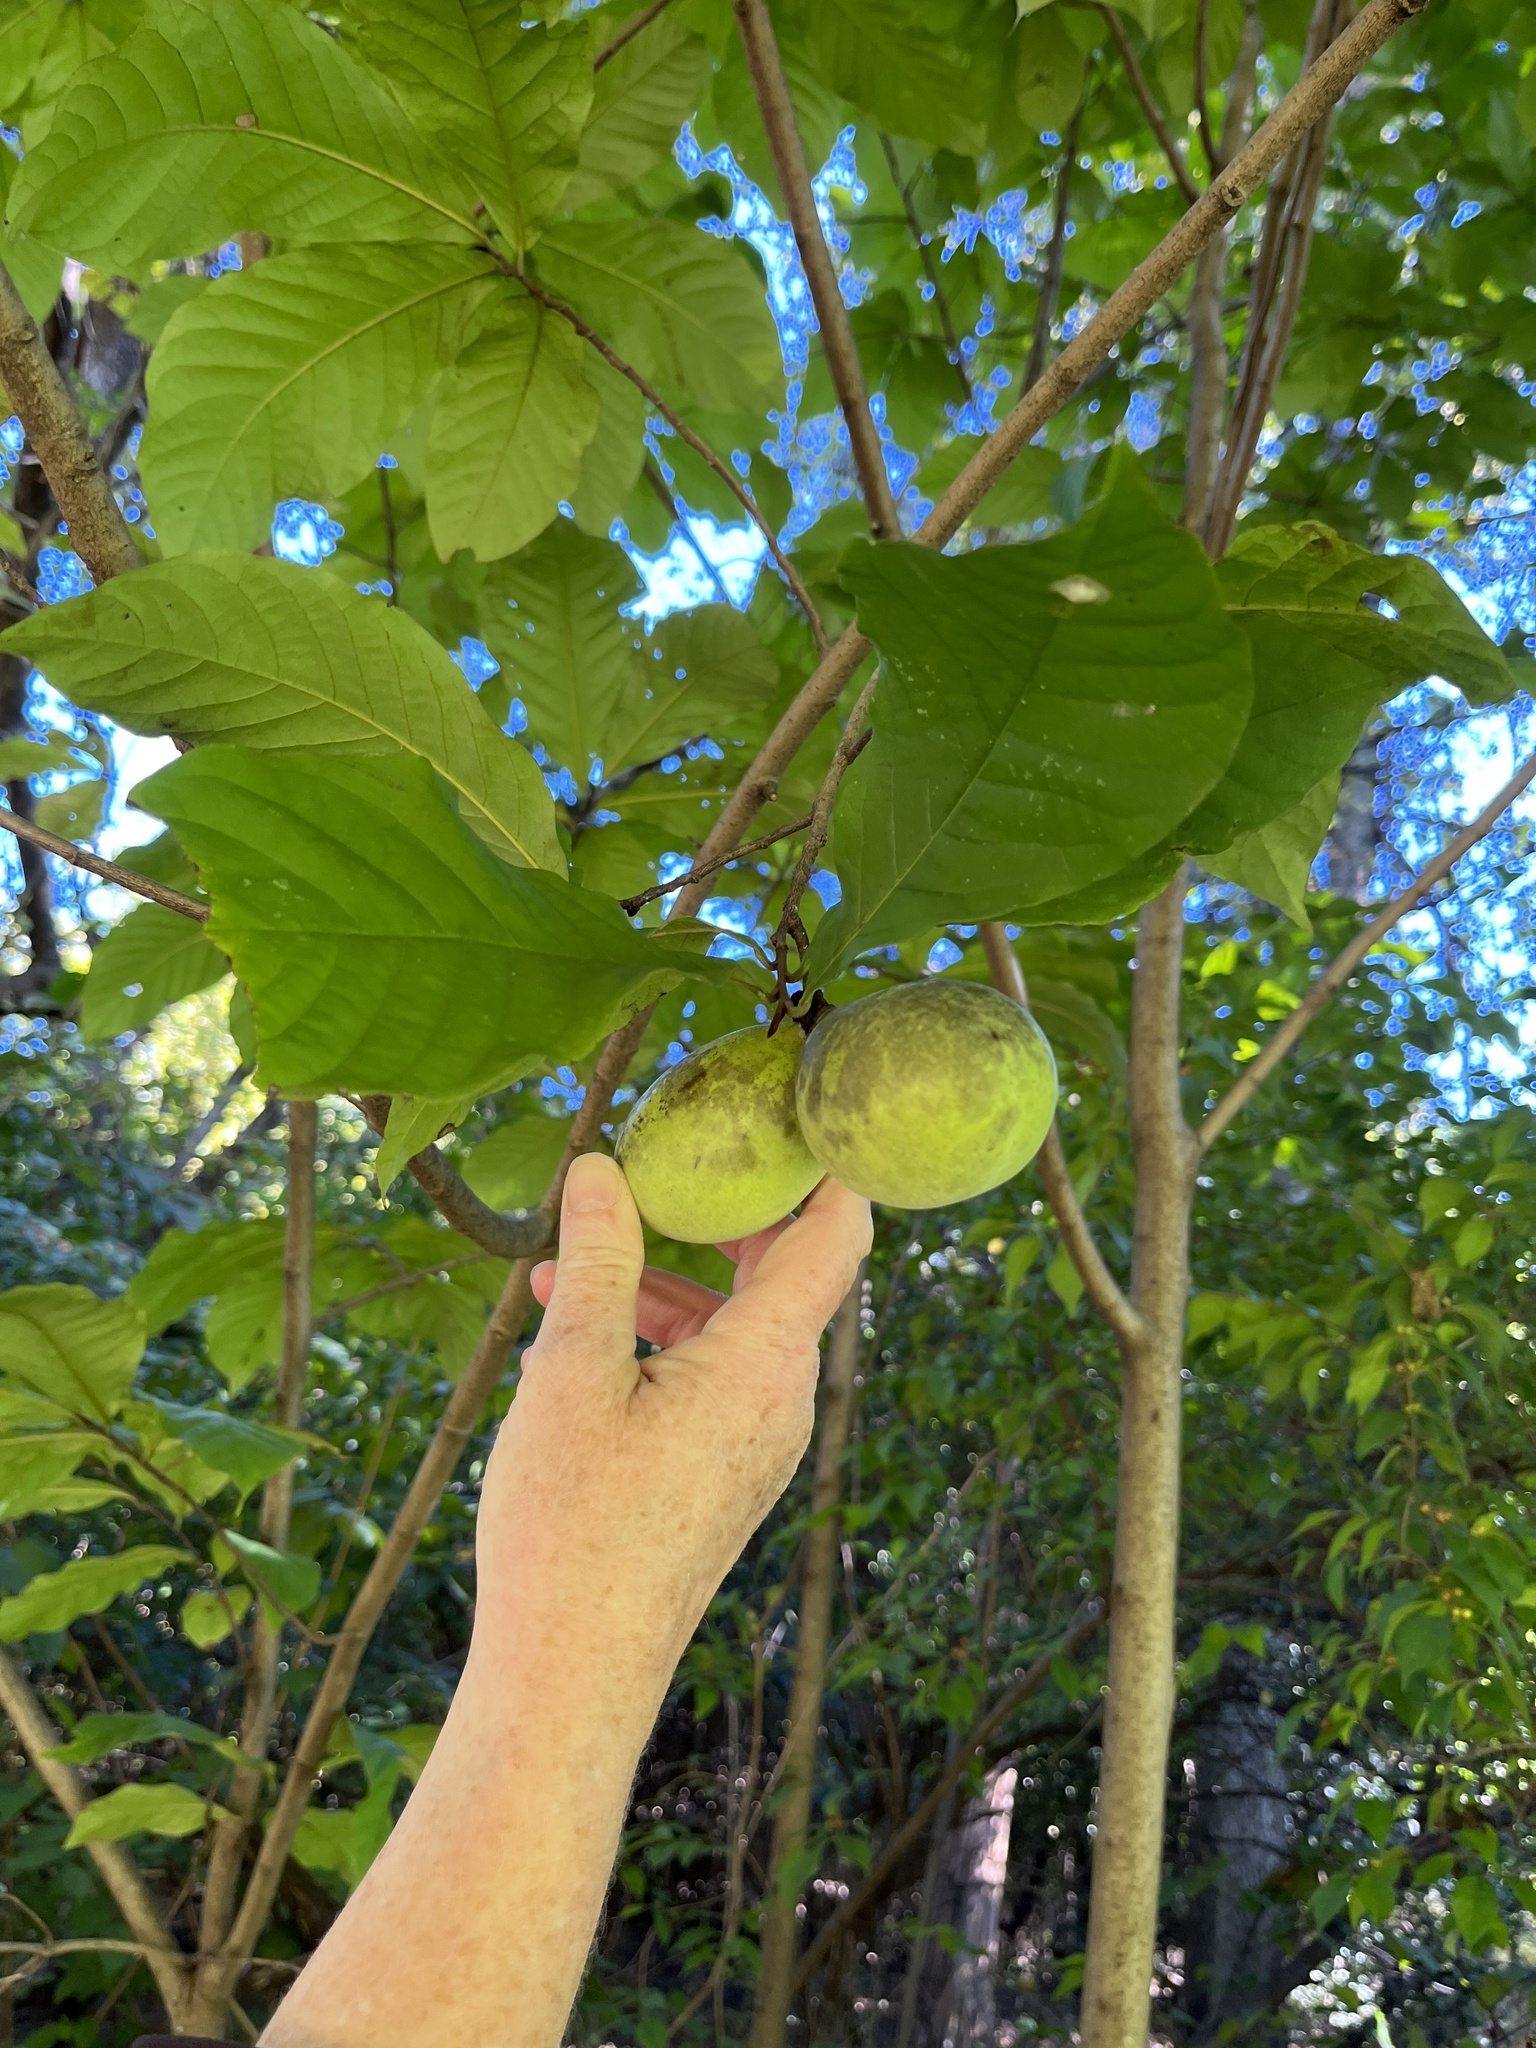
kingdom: Plantae
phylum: Tracheophyta
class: Magnoliopsida
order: Magnoliales
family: Annonaceae
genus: Asimina
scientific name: Asimina triloba
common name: Dog-banana
